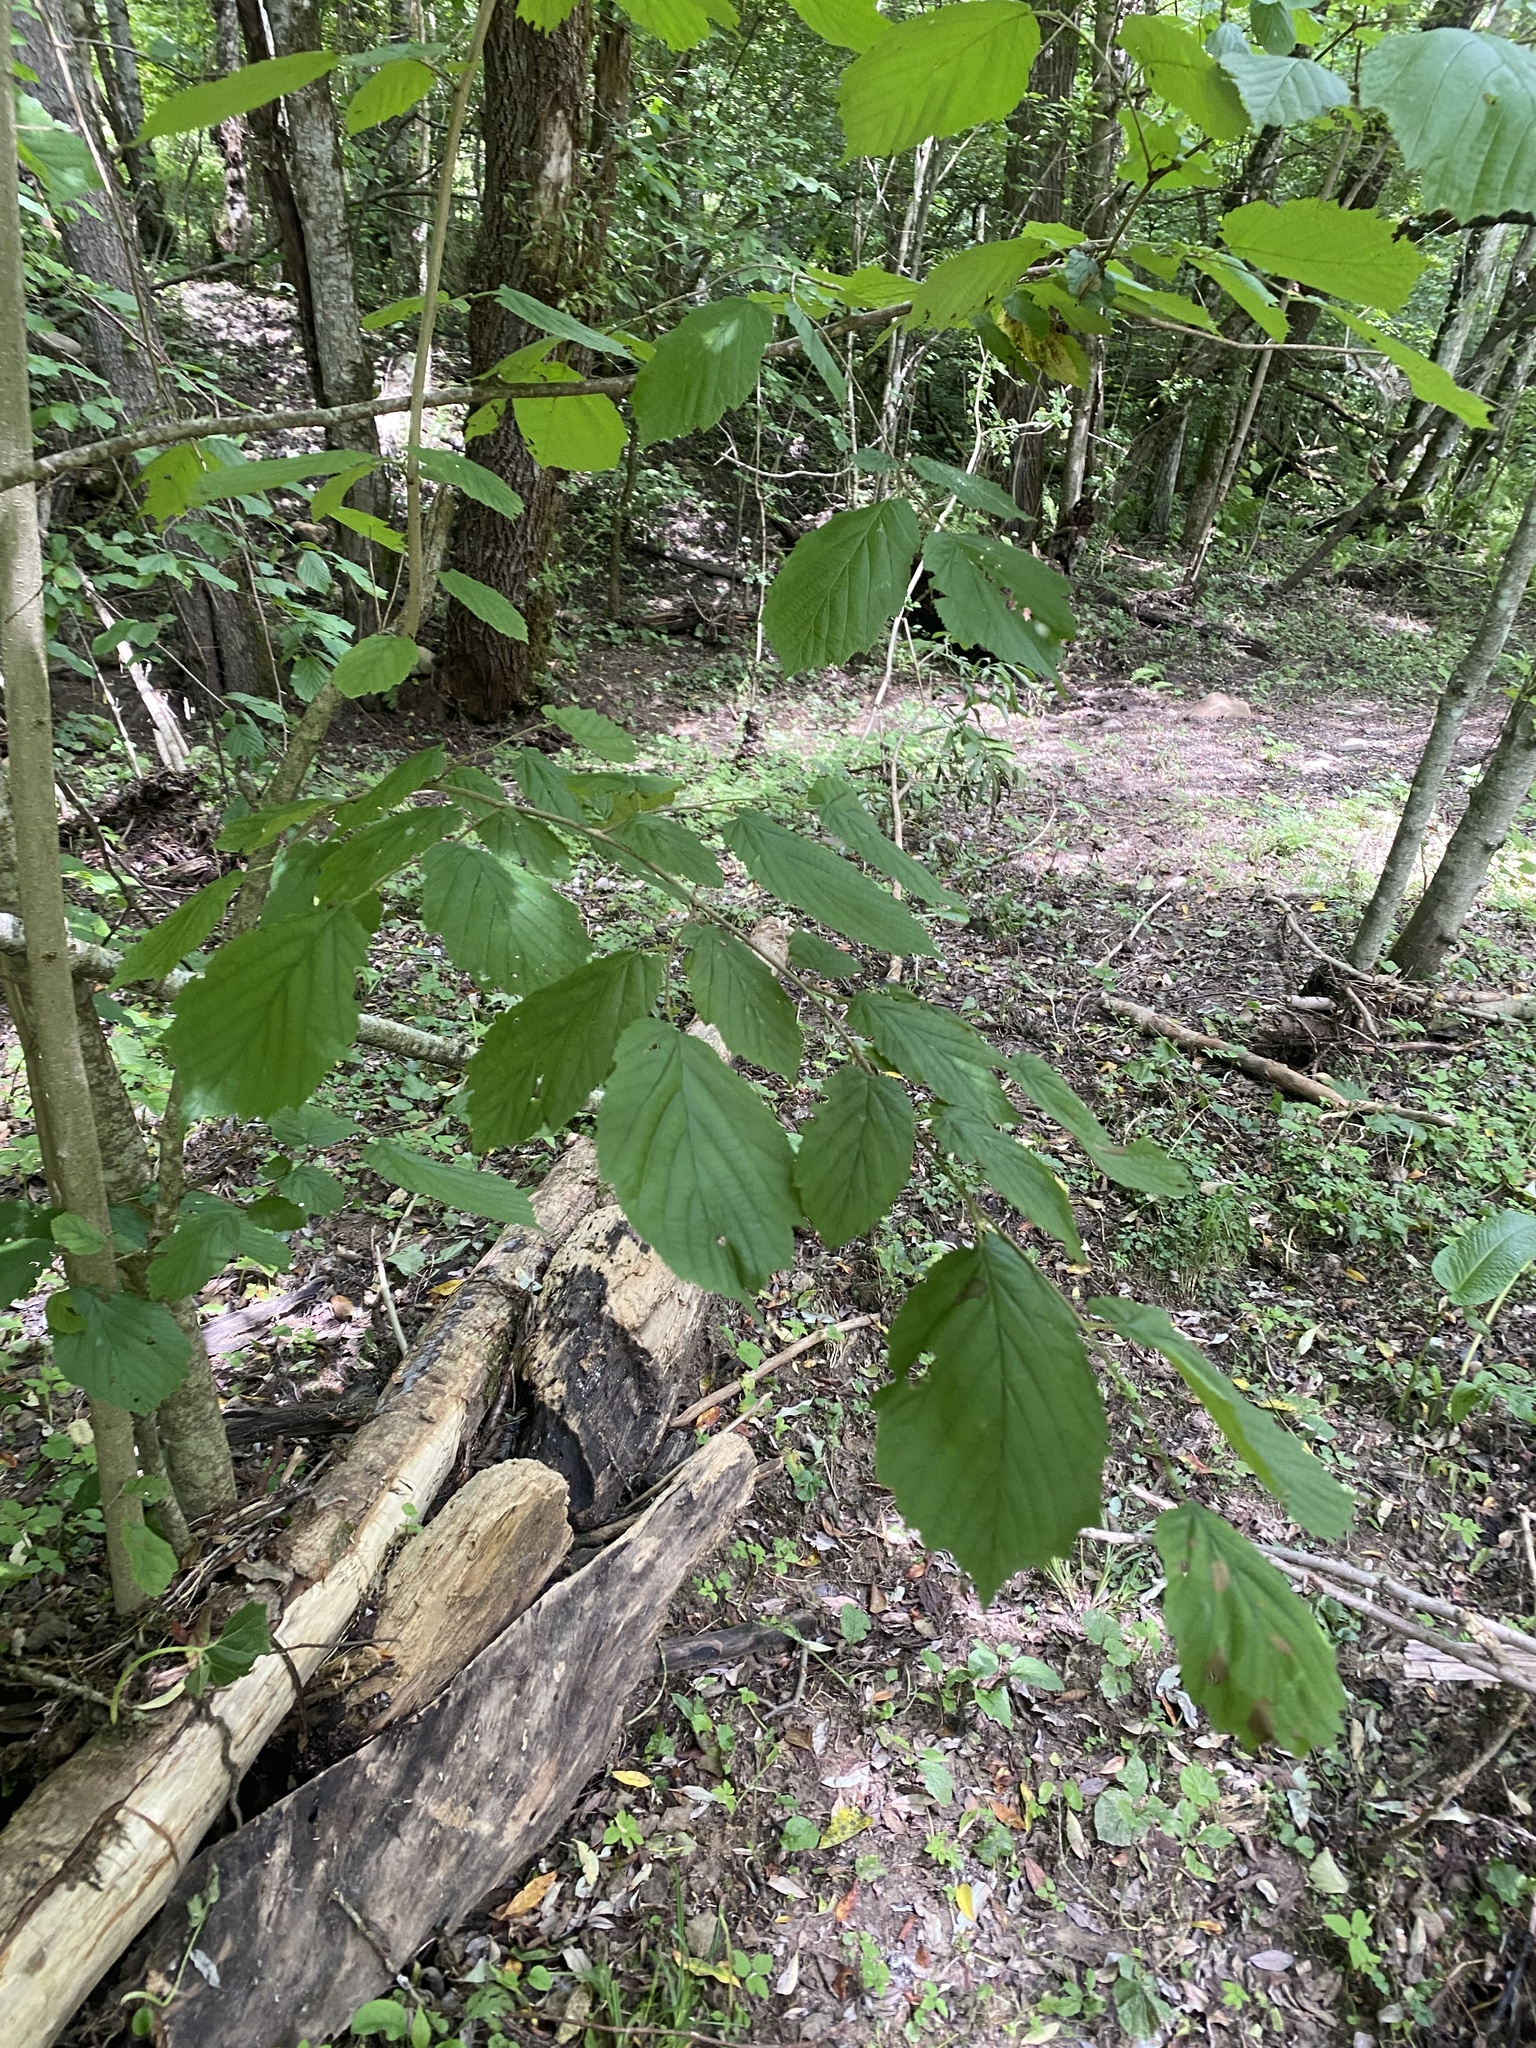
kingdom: Plantae
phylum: Tracheophyta
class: Magnoliopsida
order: Fagales
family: Betulaceae
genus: Corylus
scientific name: Corylus avellana
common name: European hazel
